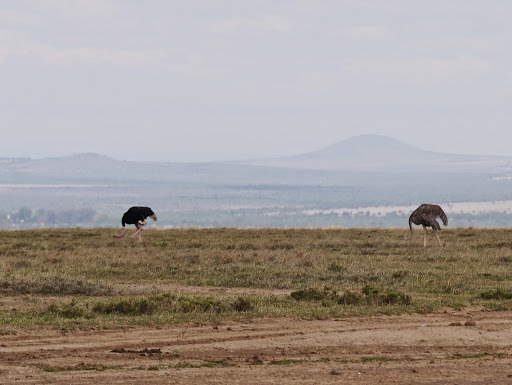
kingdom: Animalia
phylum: Chordata
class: Aves
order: Struthioniformes
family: Struthionidae
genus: Struthio
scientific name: Struthio camelus
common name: Common ostrich
